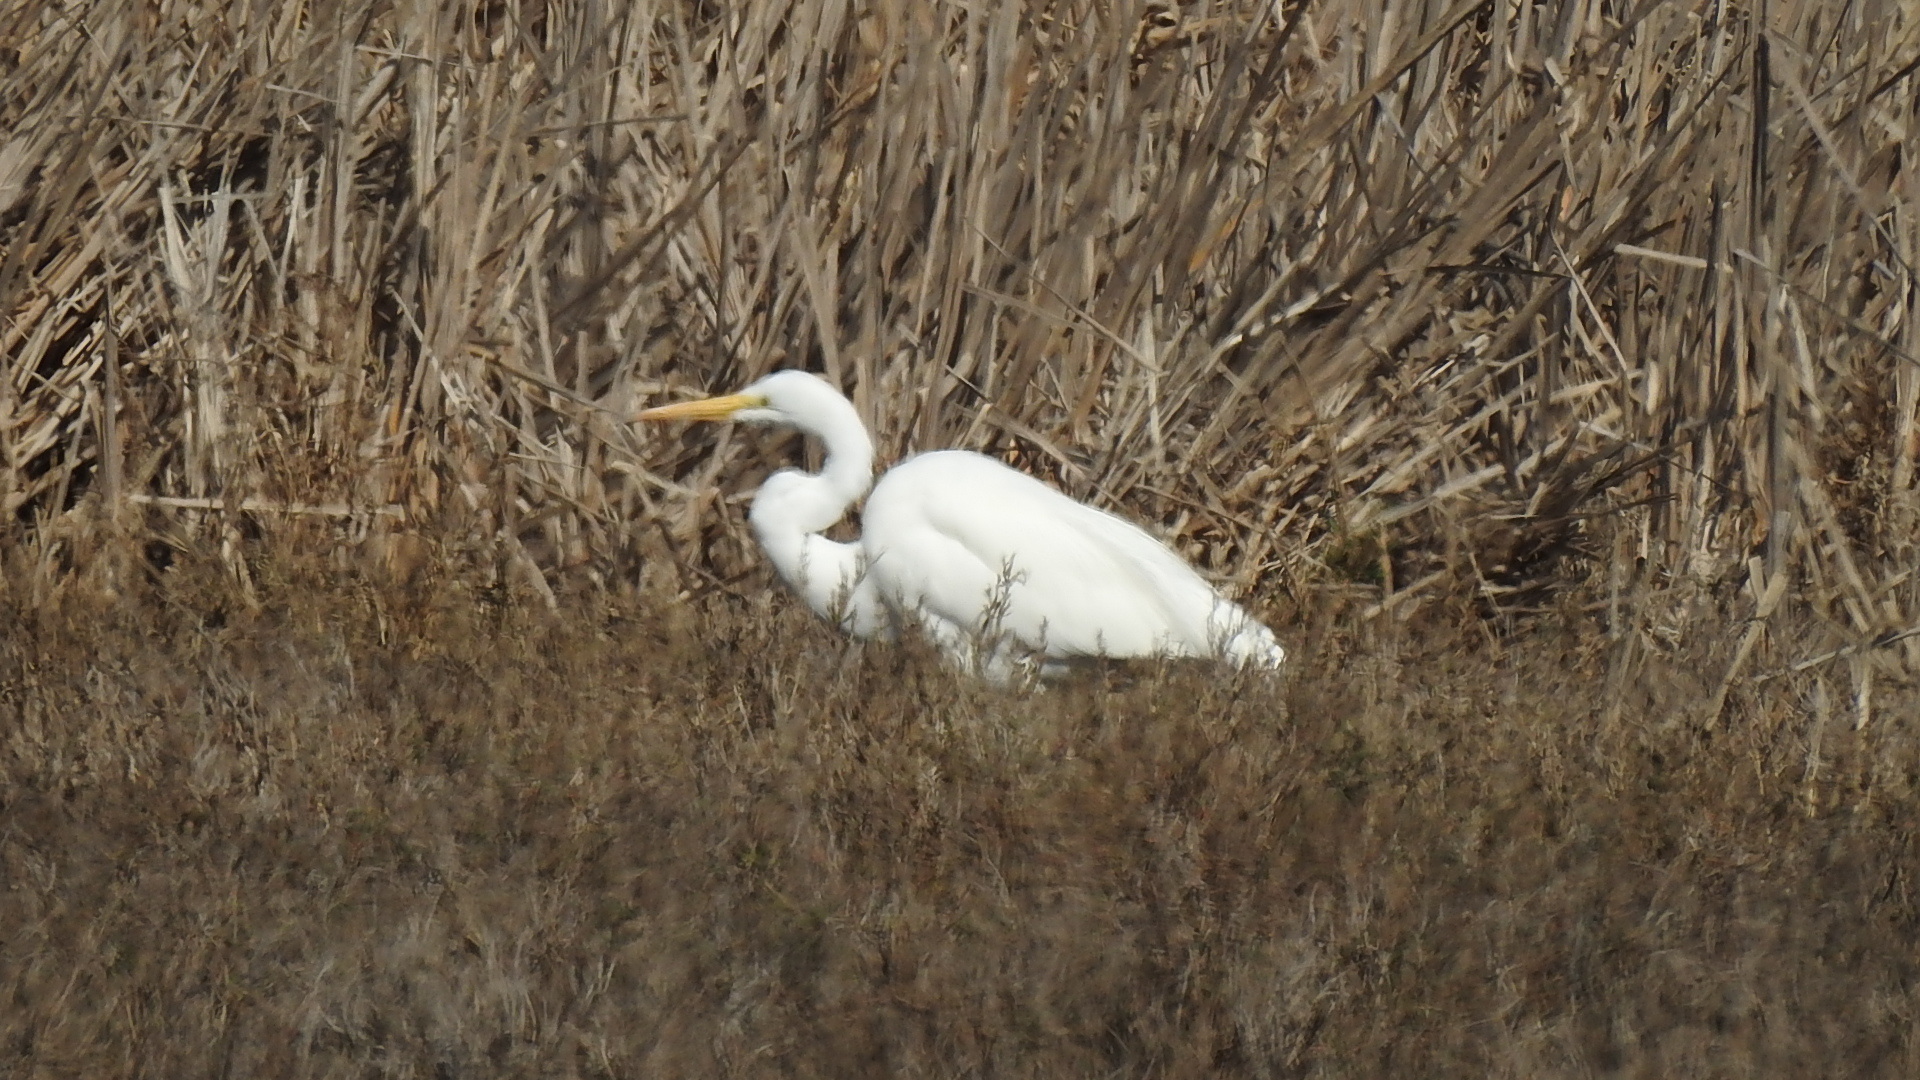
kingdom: Animalia
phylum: Chordata
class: Aves
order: Pelecaniformes
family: Ardeidae
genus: Ardea
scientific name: Ardea alba
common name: Great egret
